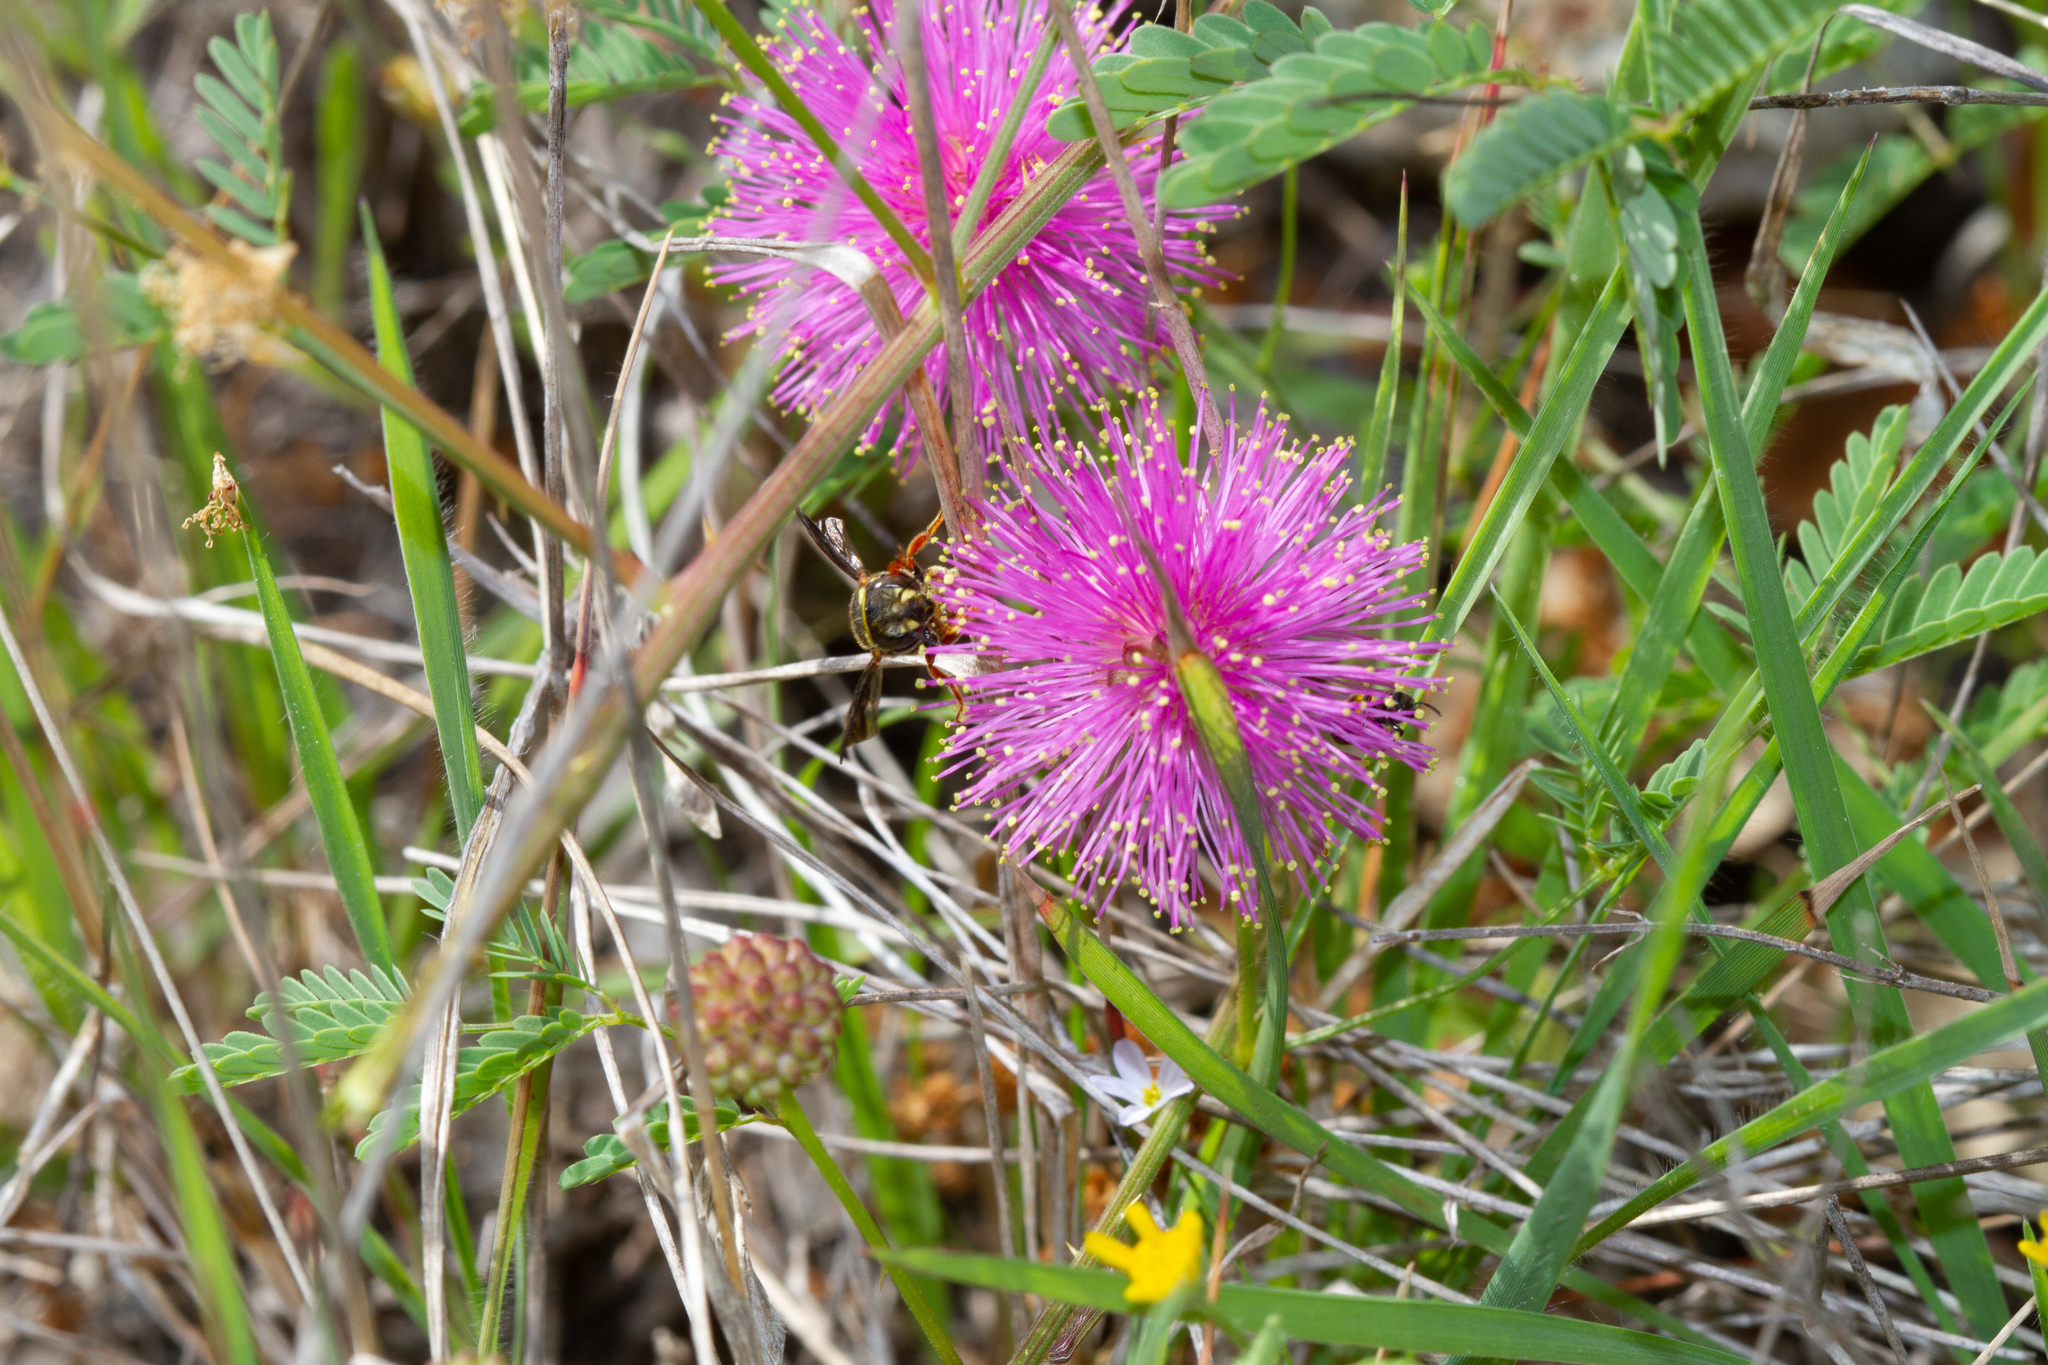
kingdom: Animalia
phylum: Arthropoda
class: Insecta
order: Hymenoptera
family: Megachilidae
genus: Anthidiellum
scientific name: Anthidiellum notatum
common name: Northern rotund-resin bee
